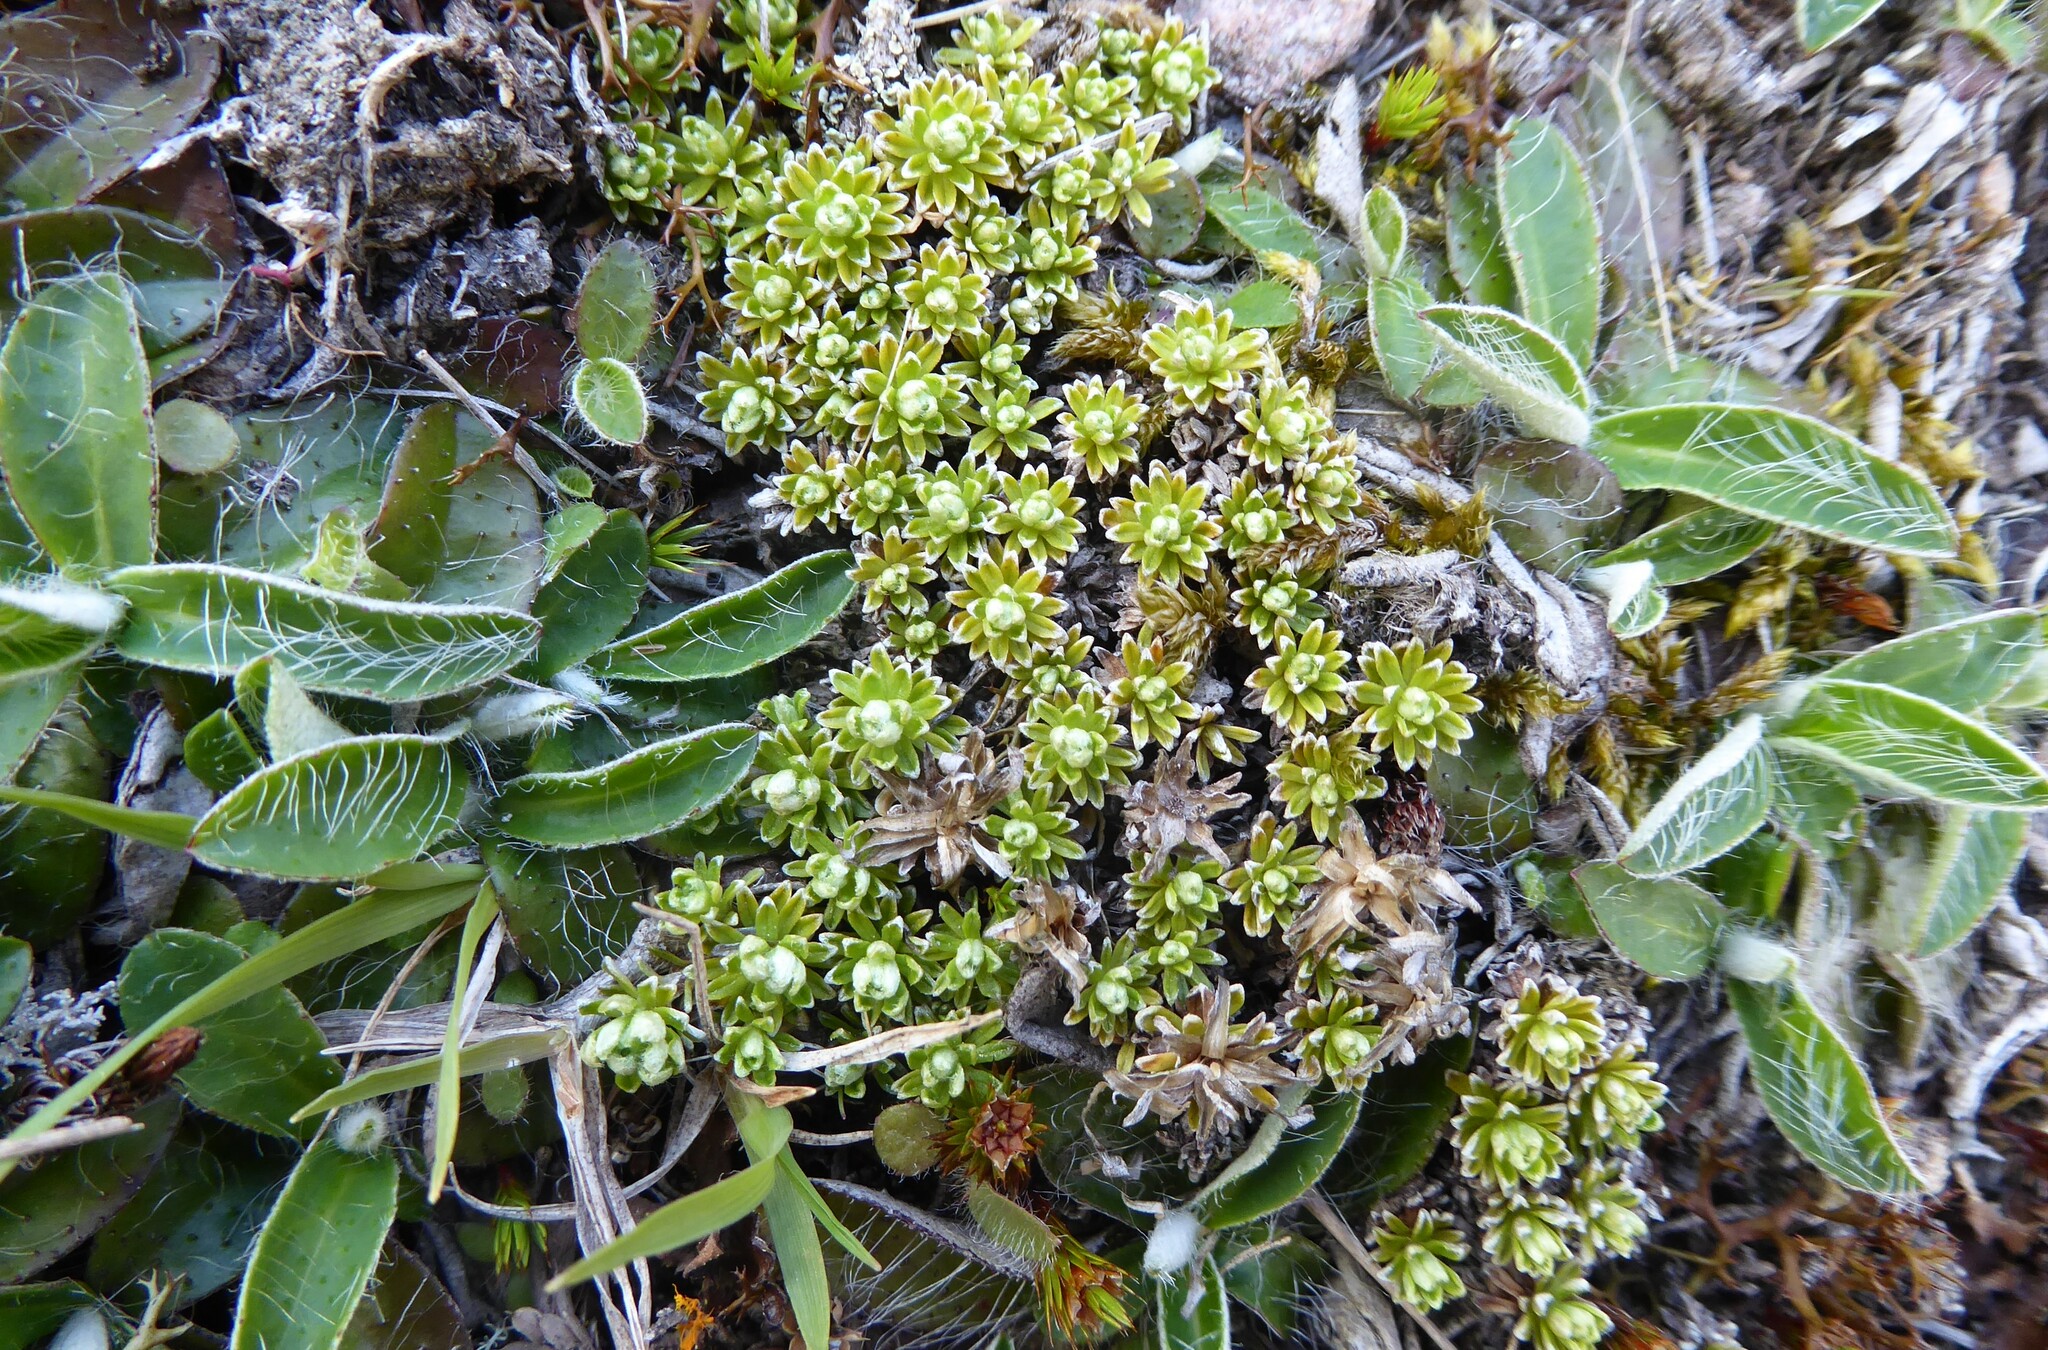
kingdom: Plantae
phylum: Tracheophyta
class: Magnoliopsida
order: Asterales
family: Asteraceae
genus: Raoulia
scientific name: Raoulia subsericea
